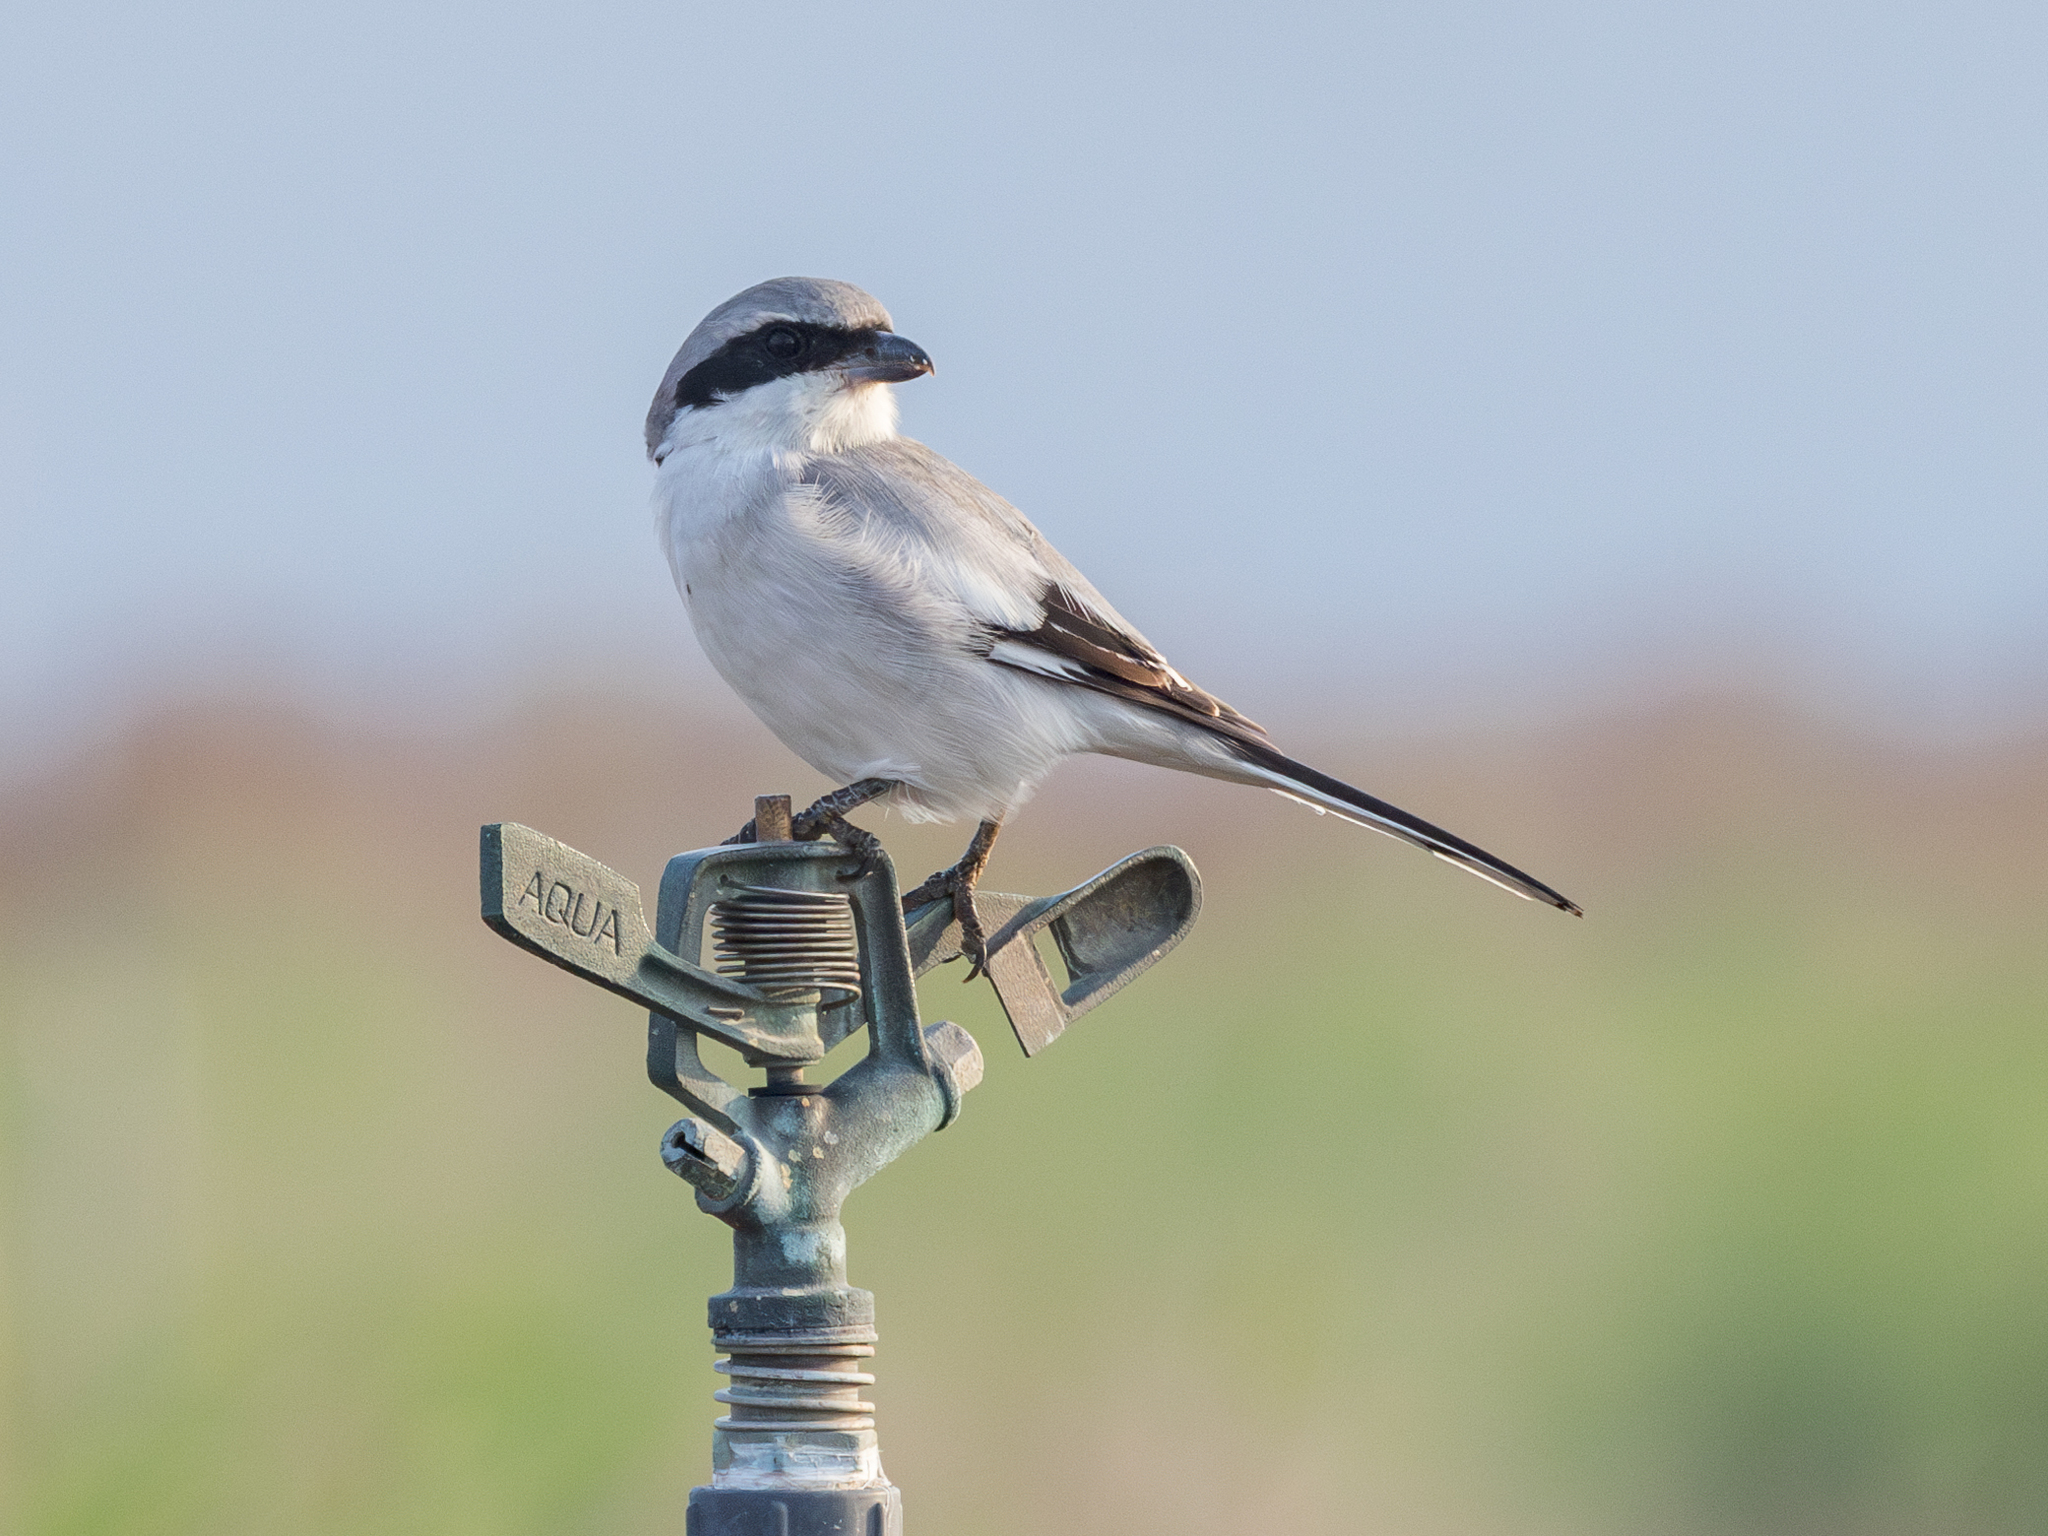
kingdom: Animalia
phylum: Chordata
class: Aves
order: Passeriformes
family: Laniidae
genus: Lanius
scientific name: Lanius excubitor
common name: Great grey shrike
